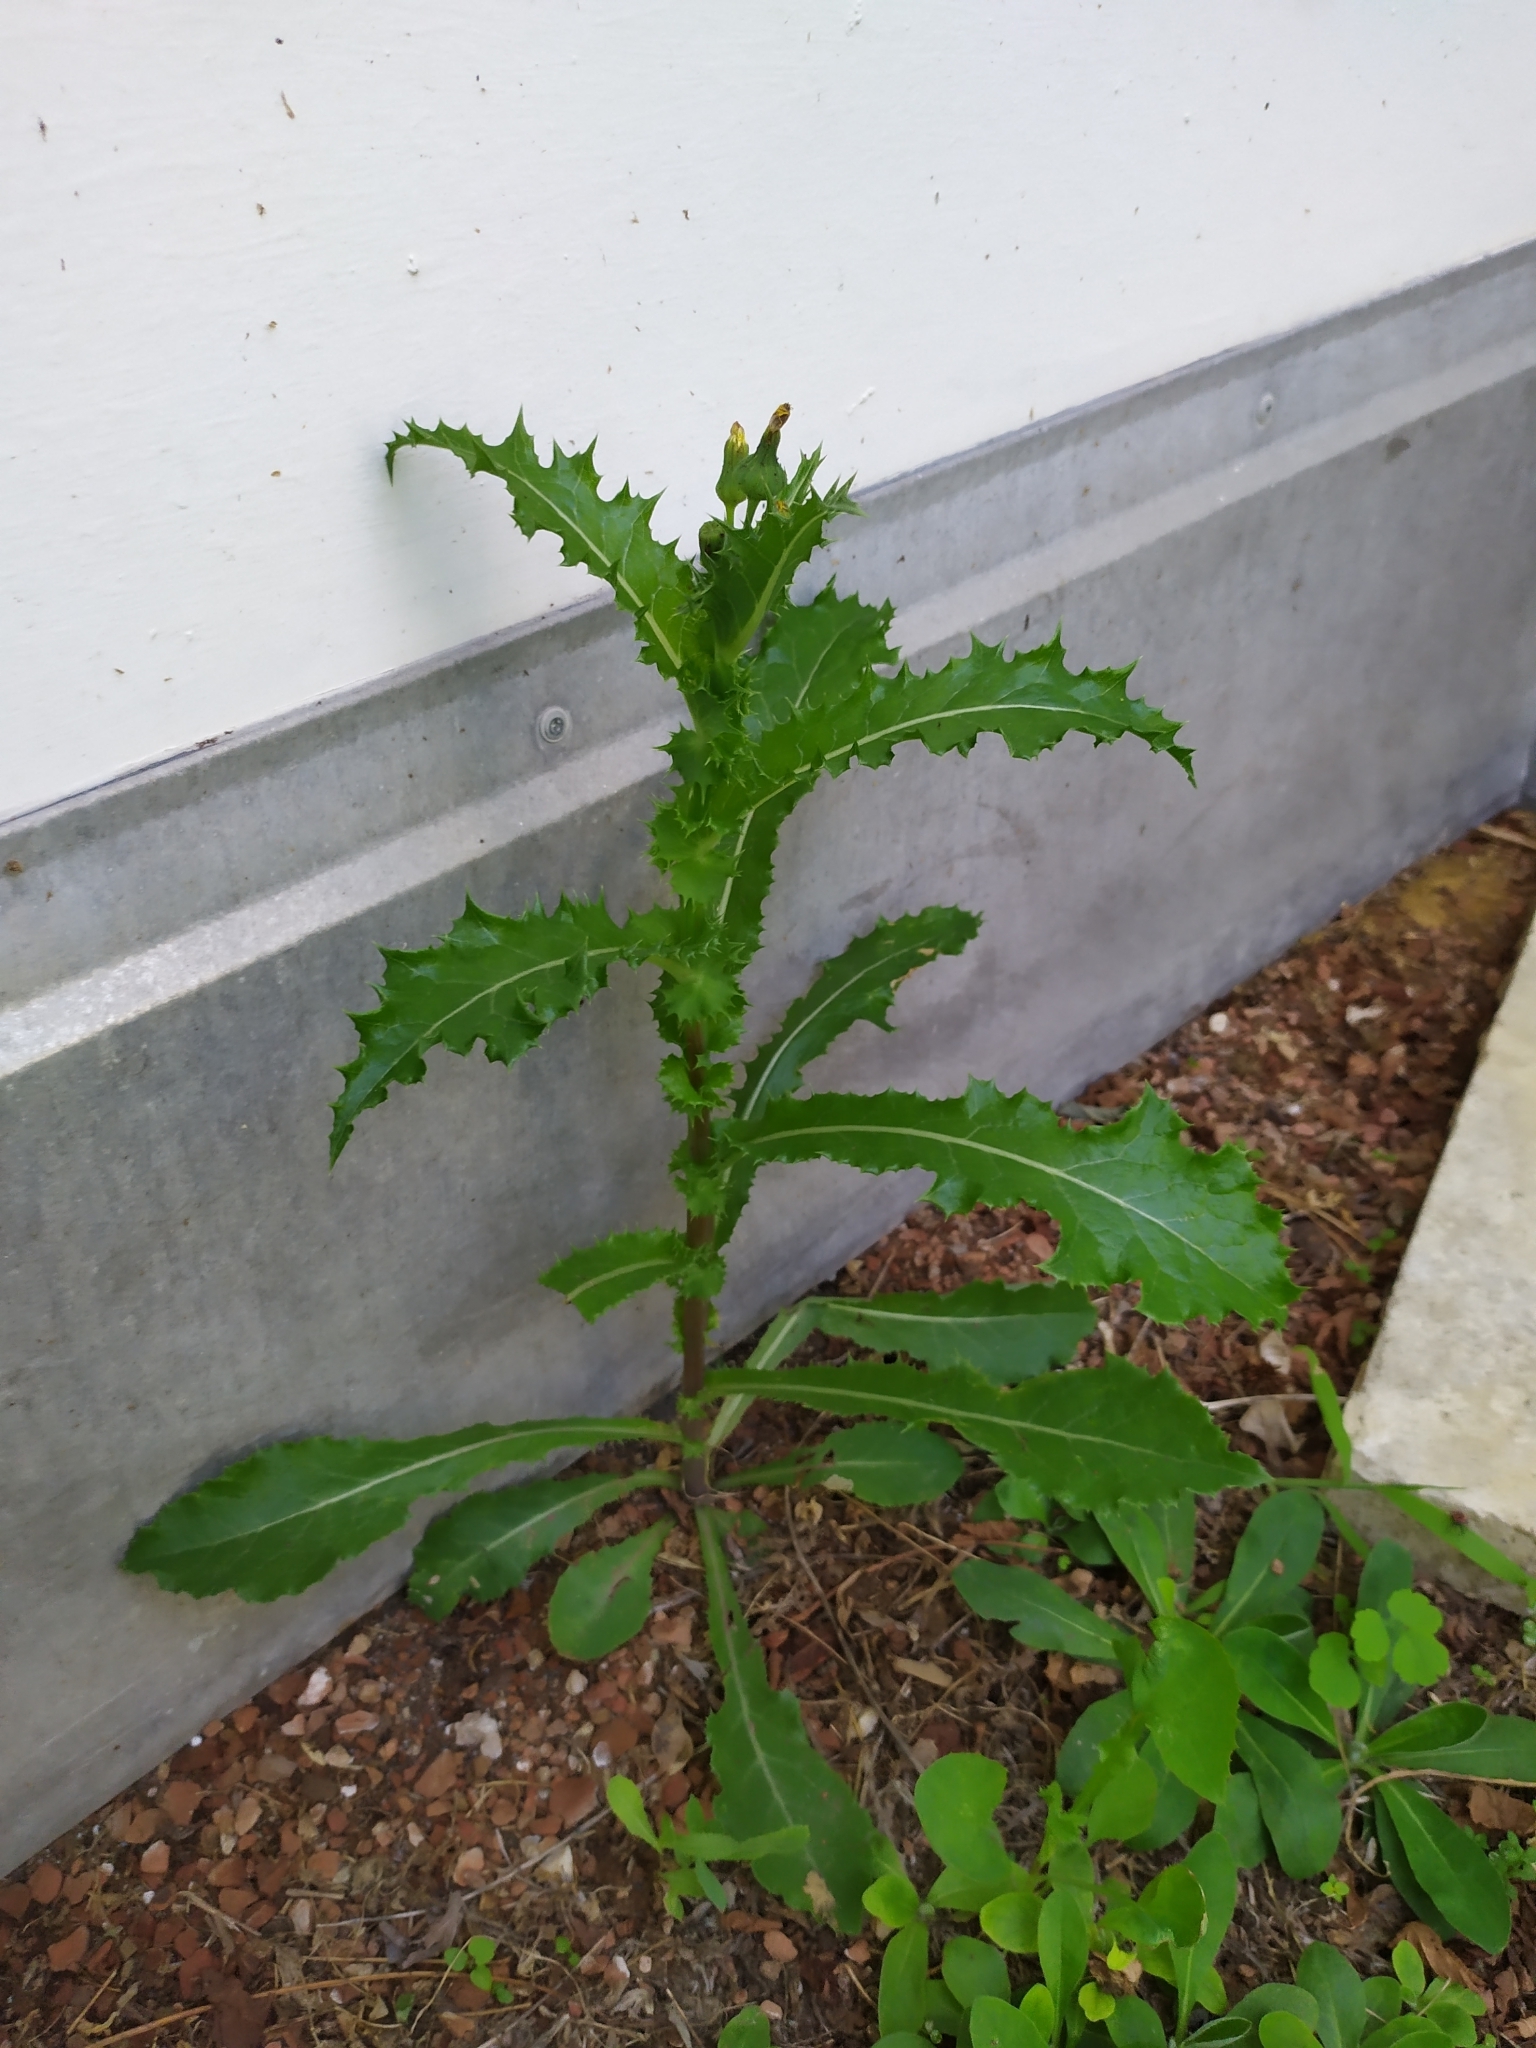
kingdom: Plantae
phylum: Tracheophyta
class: Magnoliopsida
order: Asterales
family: Asteraceae
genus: Sonchus
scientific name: Sonchus asper
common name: Prickly sow-thistle
